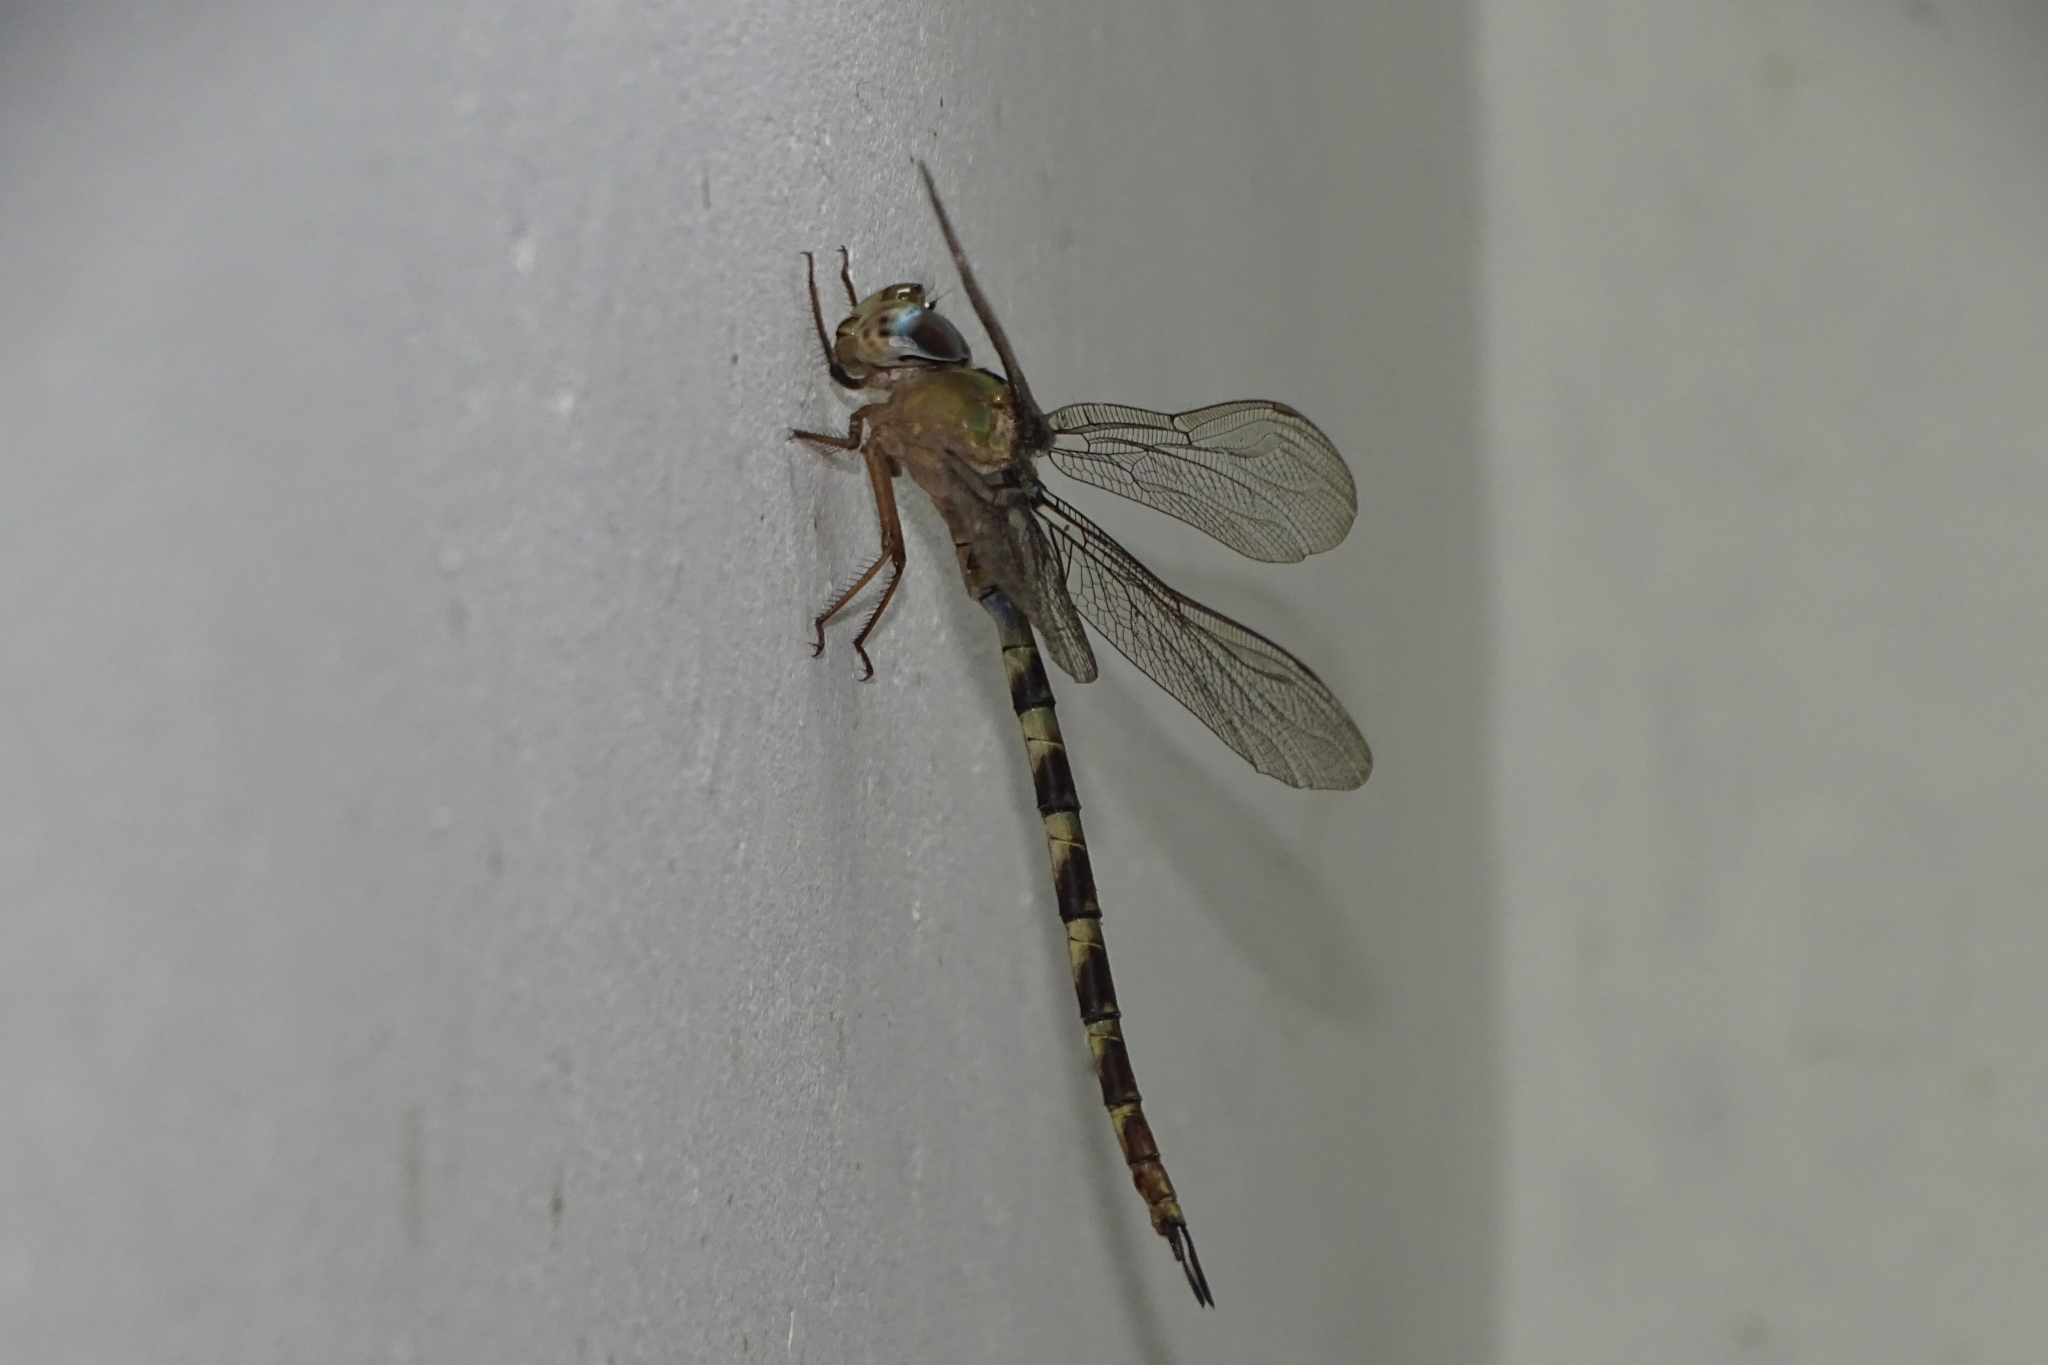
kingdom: Animalia
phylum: Arthropoda
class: Insecta
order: Odonata
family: Aeshnidae
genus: Gynacantha
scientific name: Gynacantha dravida
